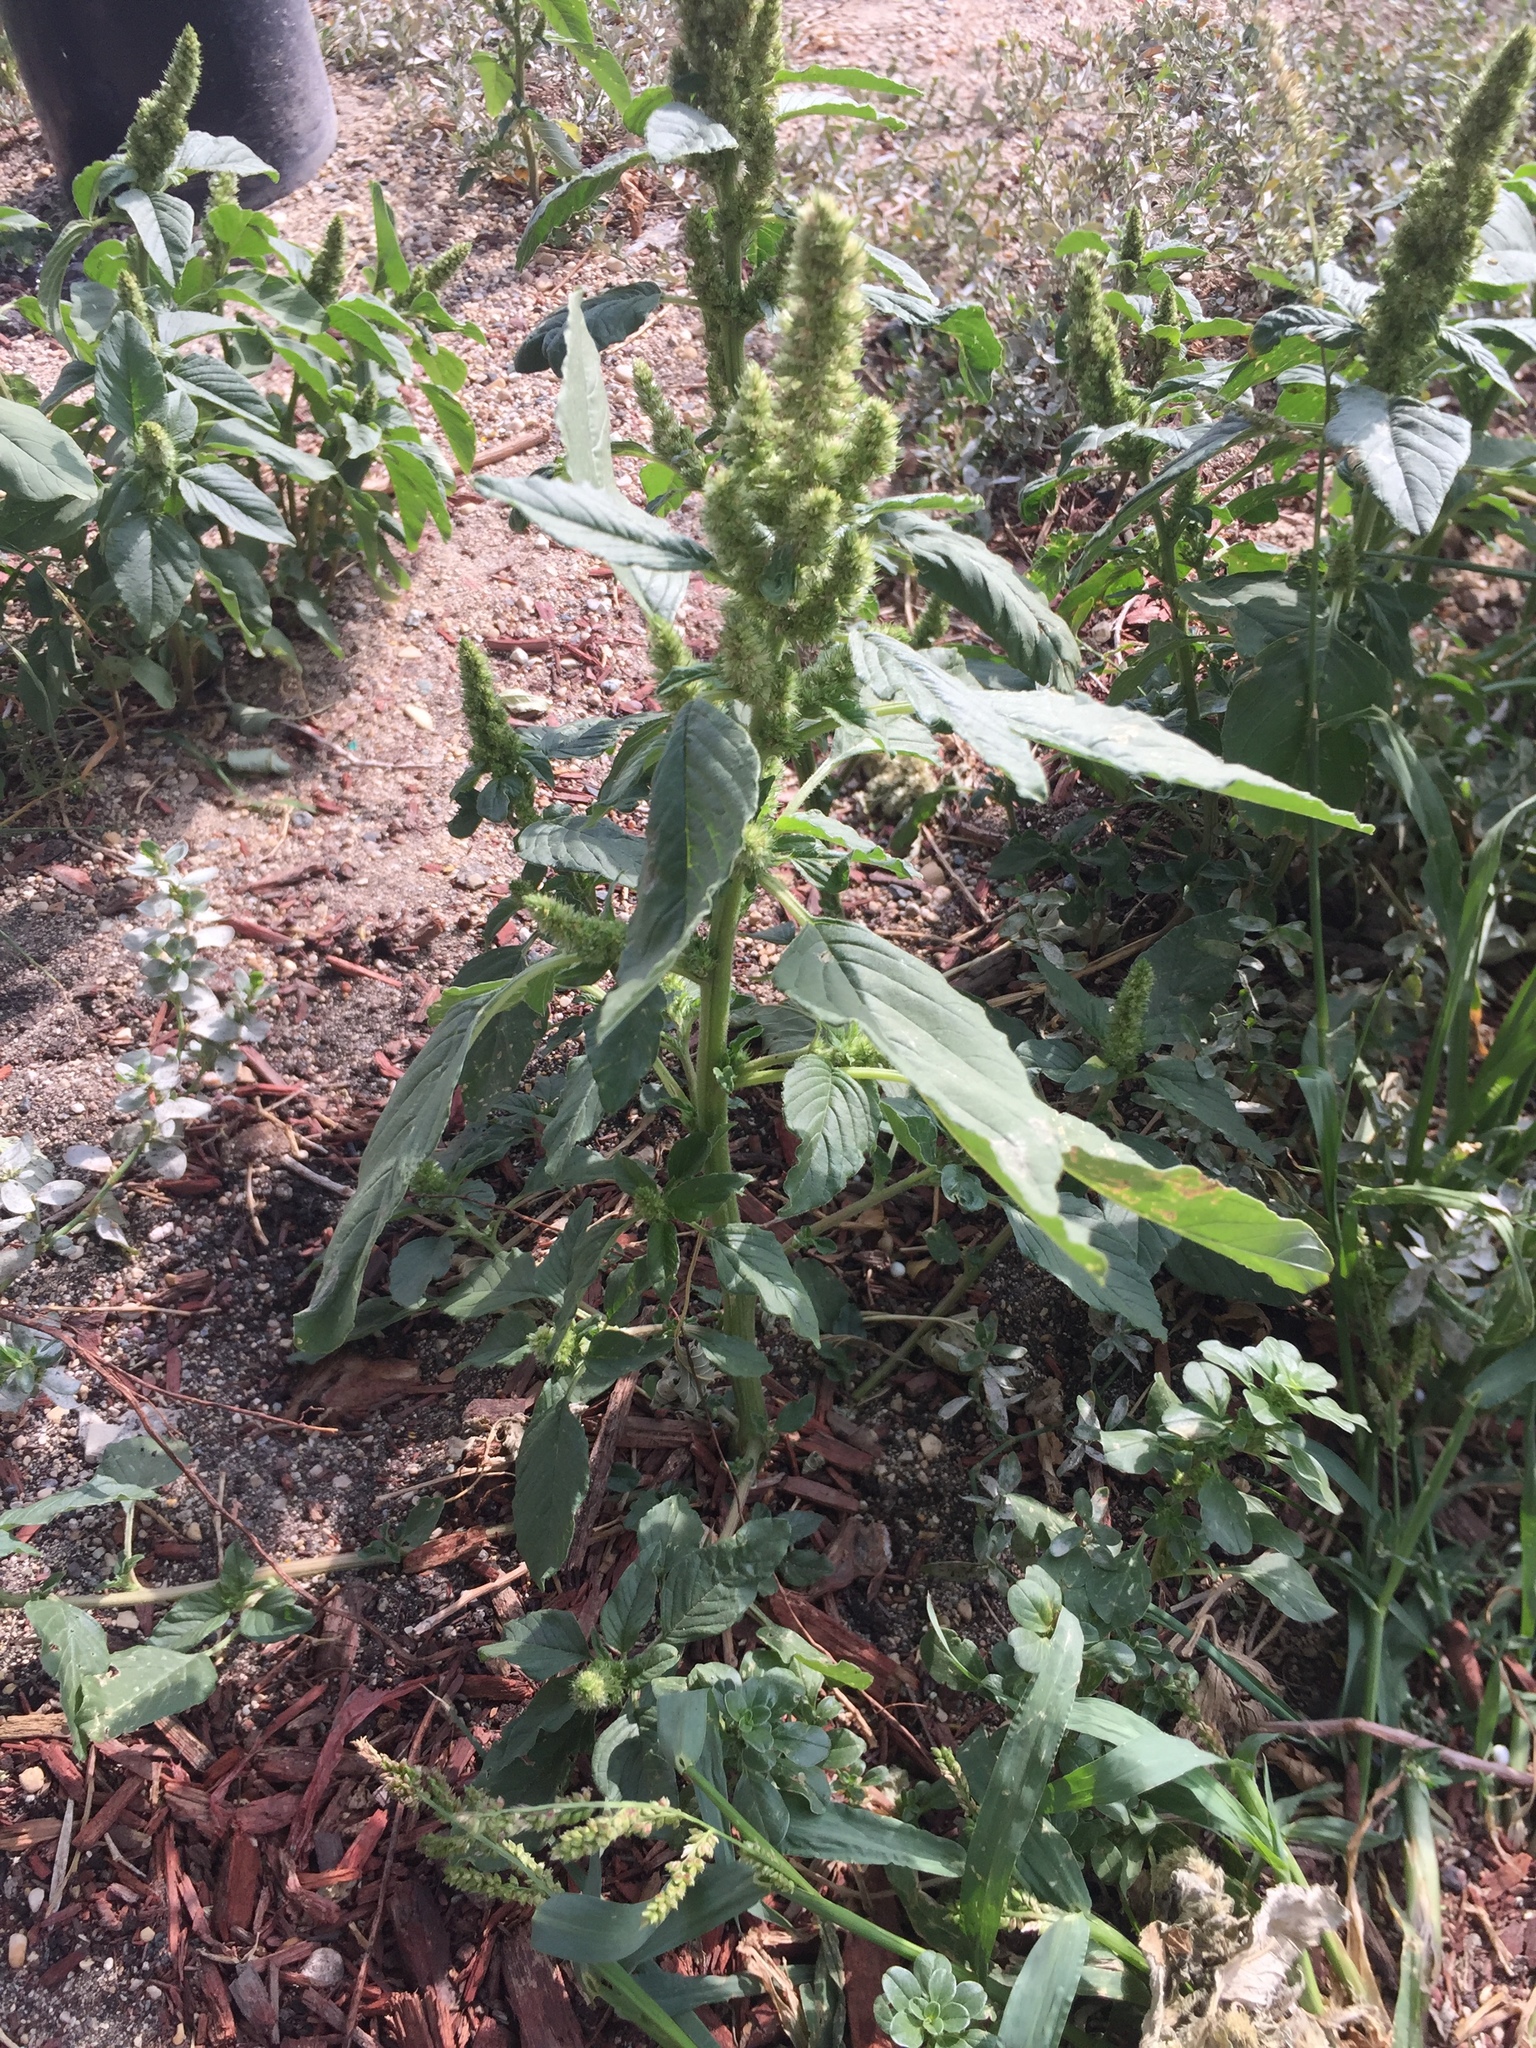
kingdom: Plantae
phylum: Tracheophyta
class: Magnoliopsida
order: Caryophyllales
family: Amaranthaceae
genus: Amaranthus
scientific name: Amaranthus retroflexus
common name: Redroot amaranth
